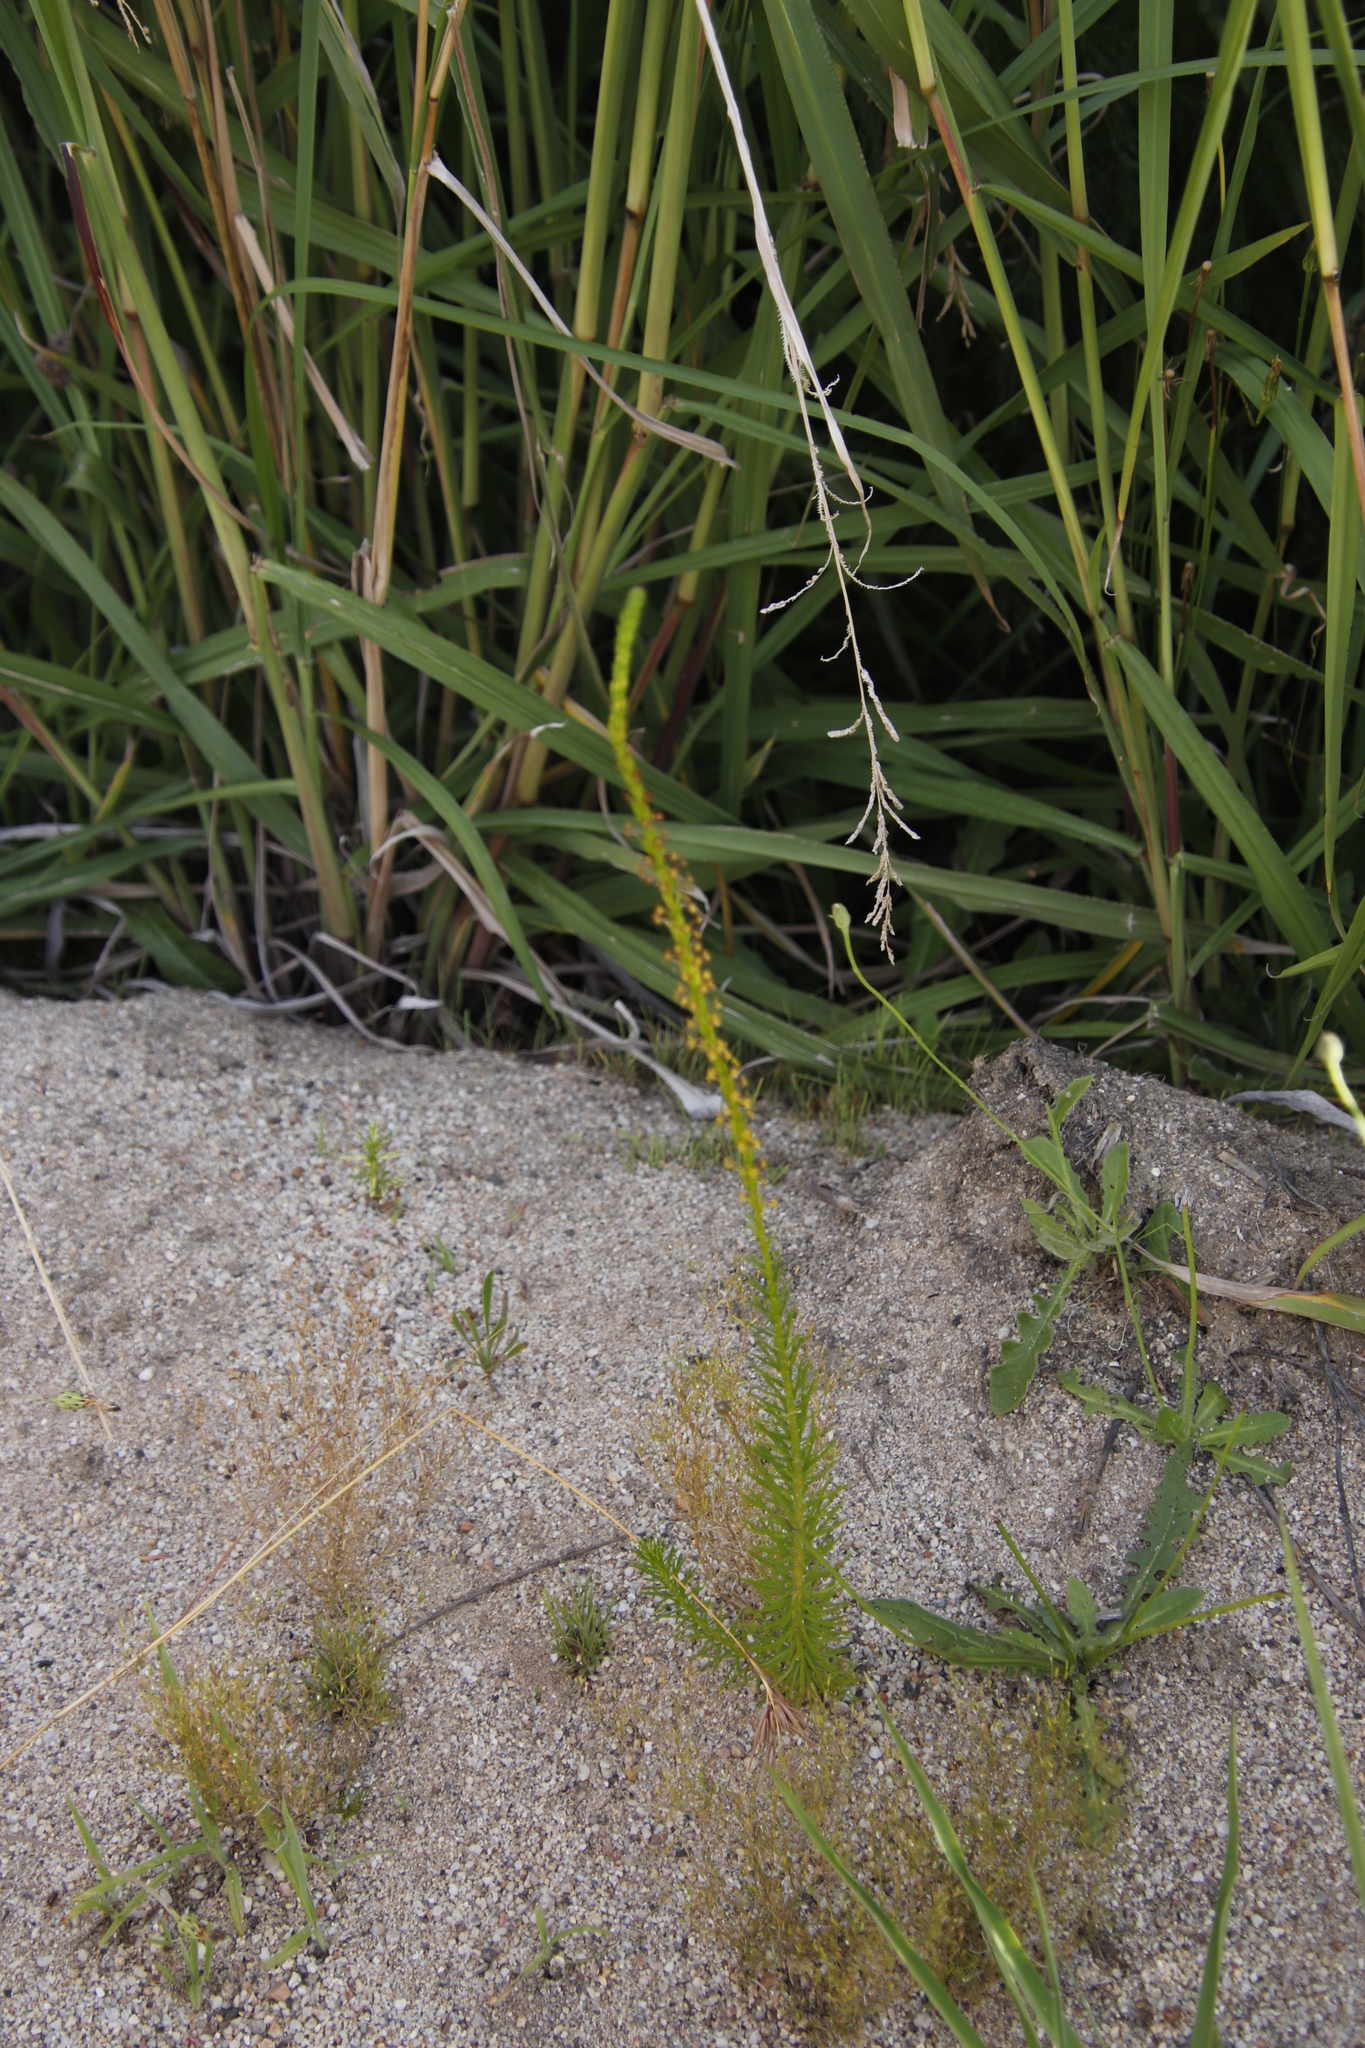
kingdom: Plantae
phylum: Tracheophyta
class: Magnoliopsida
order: Lamiales
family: Scrophulariaceae
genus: Microdon
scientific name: Microdon dubius
